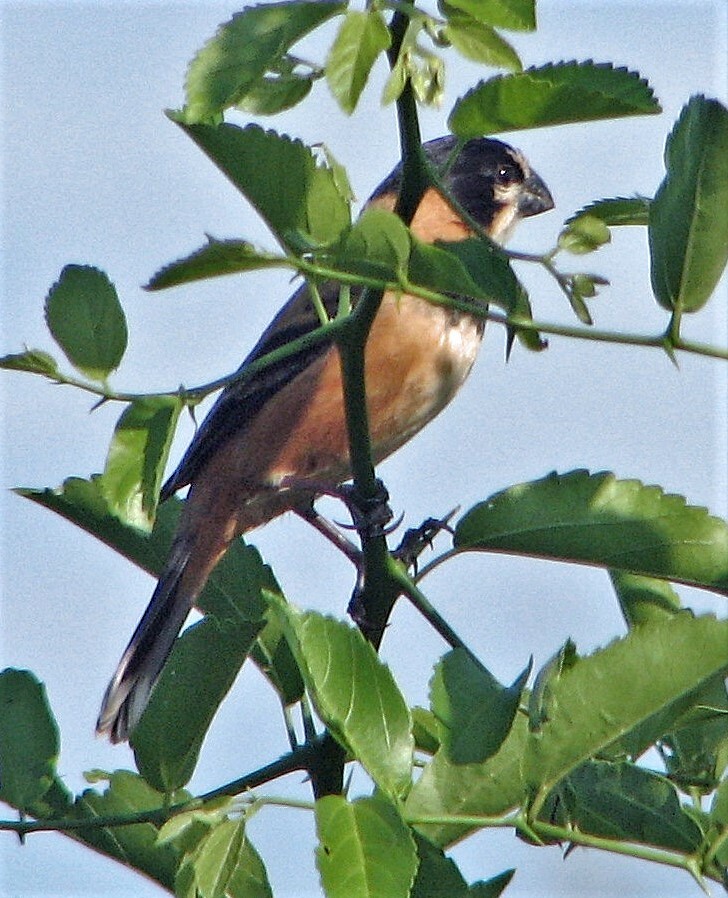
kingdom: Animalia
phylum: Chordata
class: Aves
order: Passeriformes
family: Thraupidae
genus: Sporophila
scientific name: Sporophila collaris
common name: Rusty-collared seedeater
